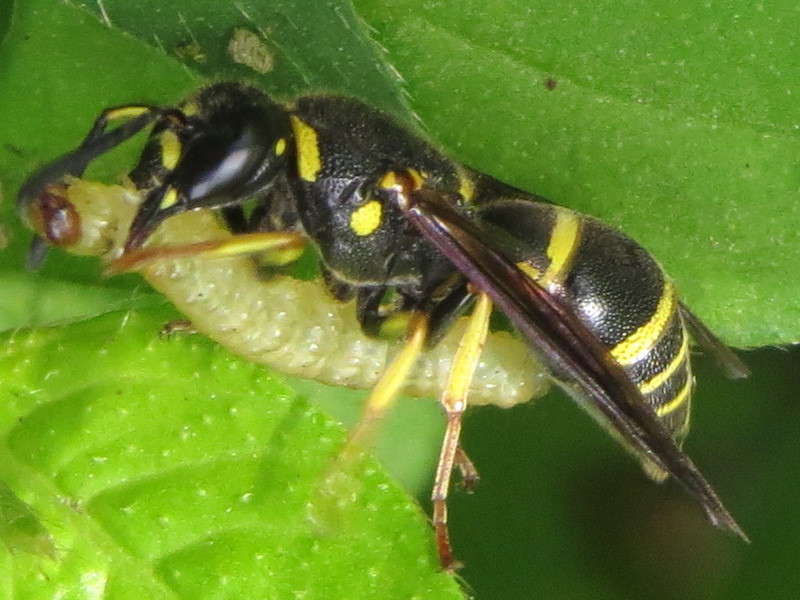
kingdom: Animalia
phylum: Arthropoda
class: Insecta
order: Hymenoptera
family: Eumenidae
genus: Euodynerus
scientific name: Euodynerus foraminatus
